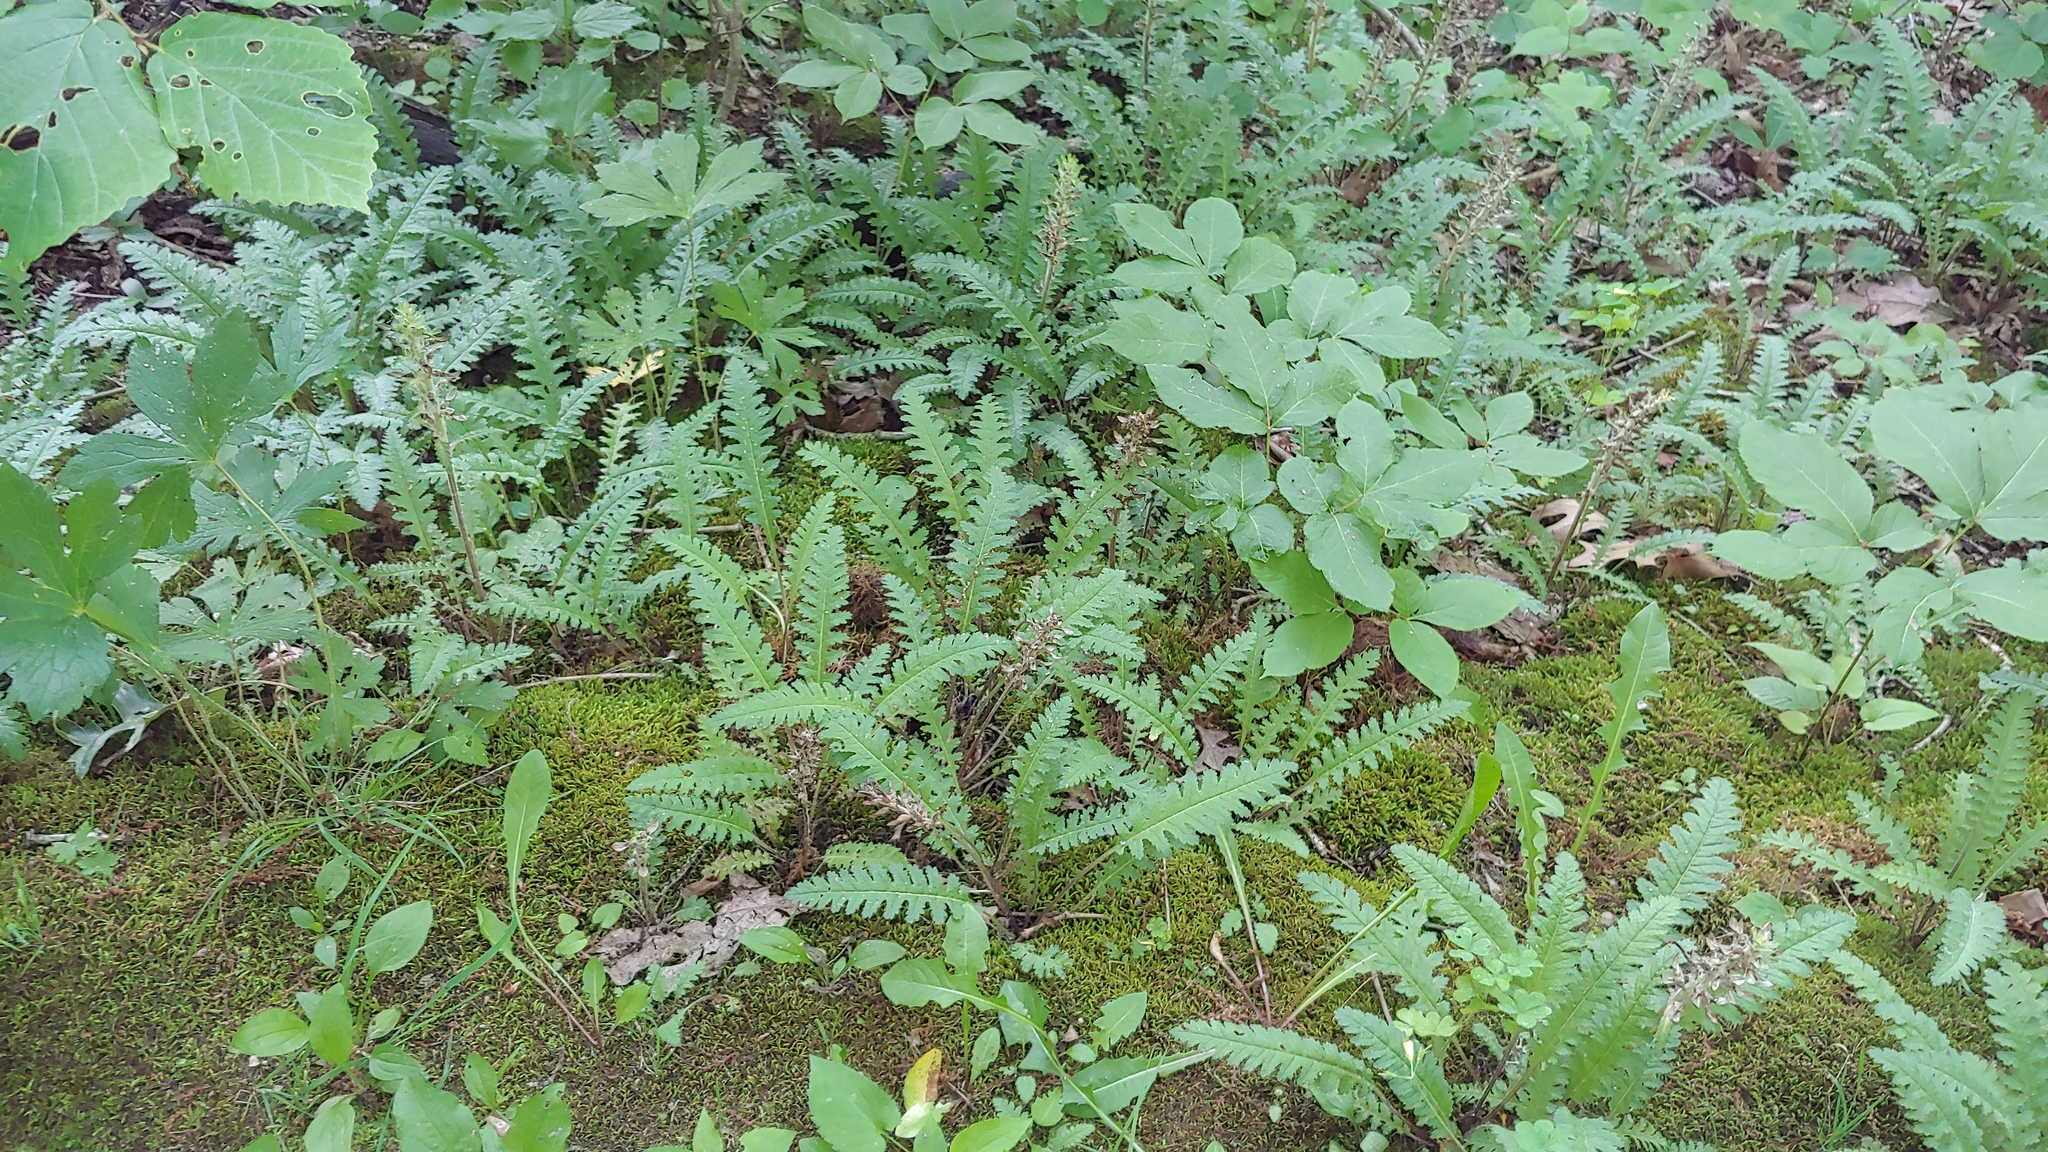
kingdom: Plantae
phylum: Tracheophyta
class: Magnoliopsida
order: Lamiales
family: Orobanchaceae
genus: Pedicularis
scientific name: Pedicularis canadensis
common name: Early lousewort
